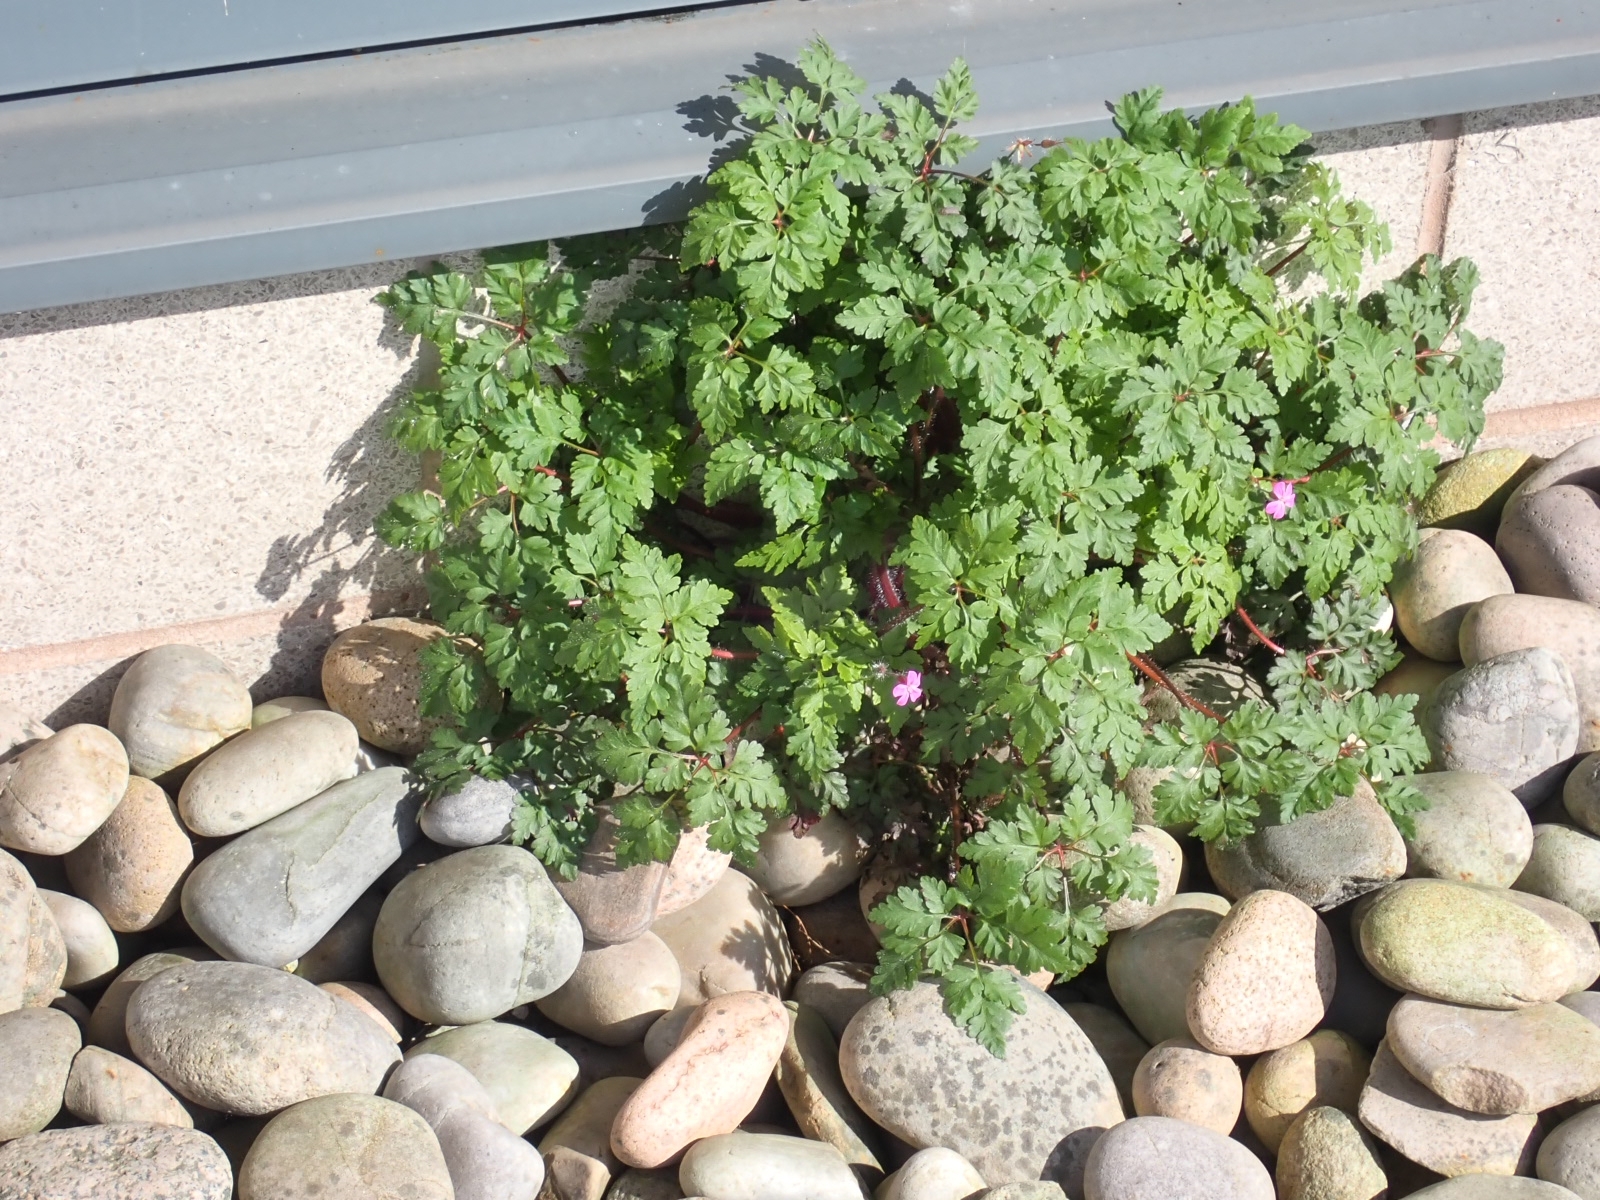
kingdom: Plantae
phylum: Tracheophyta
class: Magnoliopsida
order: Geraniales
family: Geraniaceae
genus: Geranium
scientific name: Geranium robertianum
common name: Herb-robert
